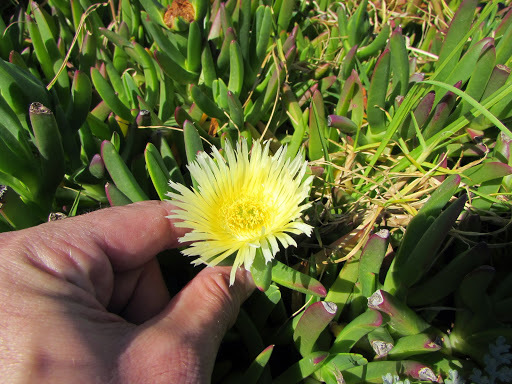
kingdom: Plantae
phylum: Tracheophyta
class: Magnoliopsida
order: Caryophyllales
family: Aizoaceae
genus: Carpobrotus
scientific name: Carpobrotus edulis
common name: Hottentot-fig
